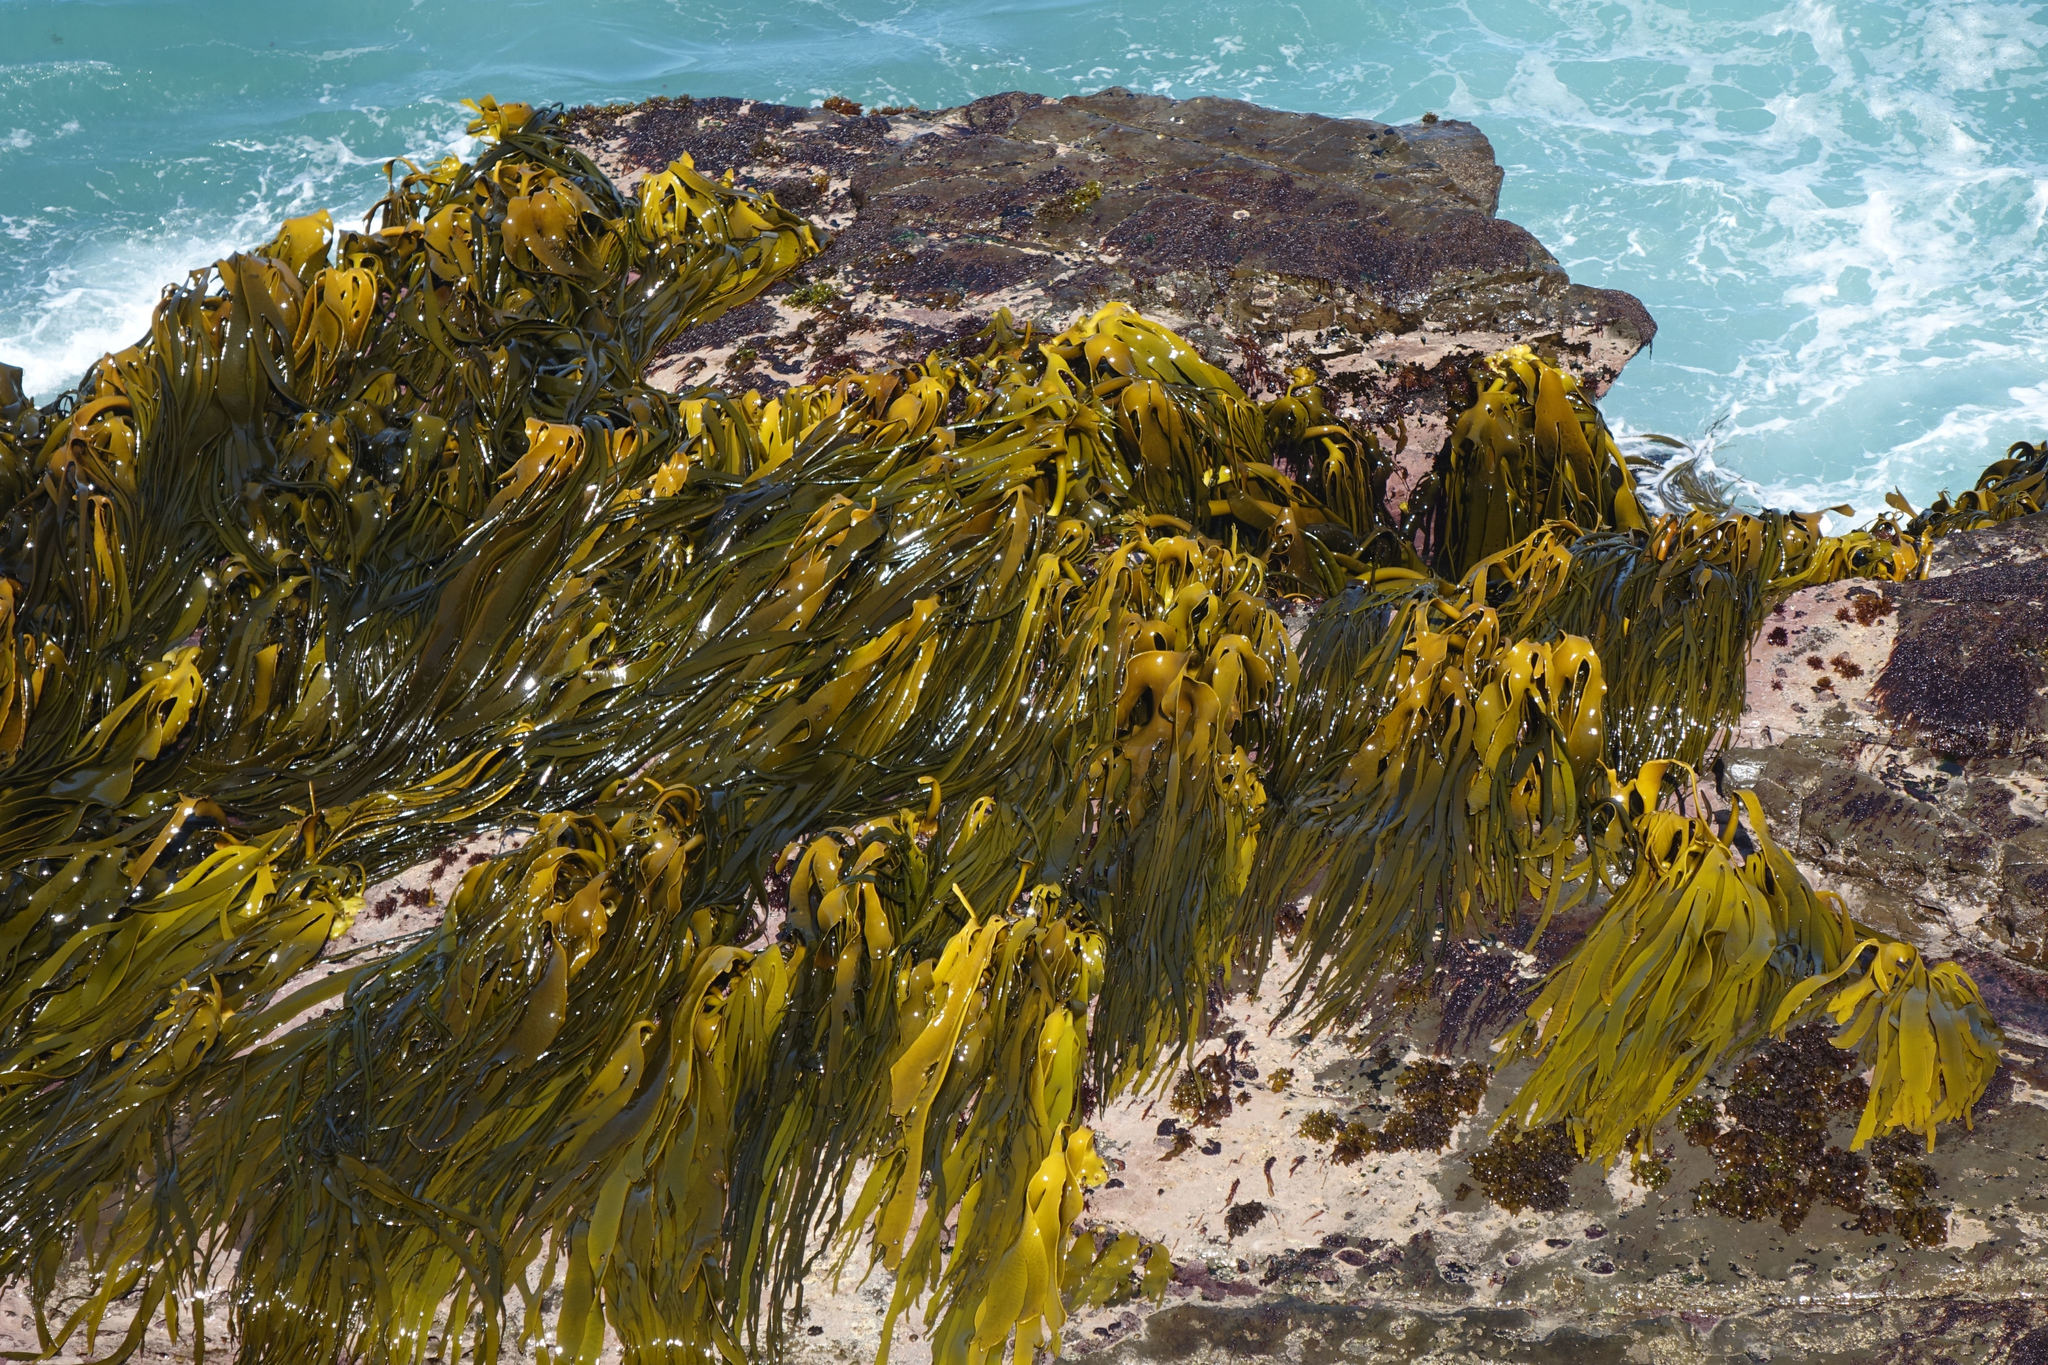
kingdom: Chromista
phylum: Ochrophyta
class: Phaeophyceae
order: Fucales
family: Durvillaeaceae
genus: Durvillaea
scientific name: Durvillaea antarctica
